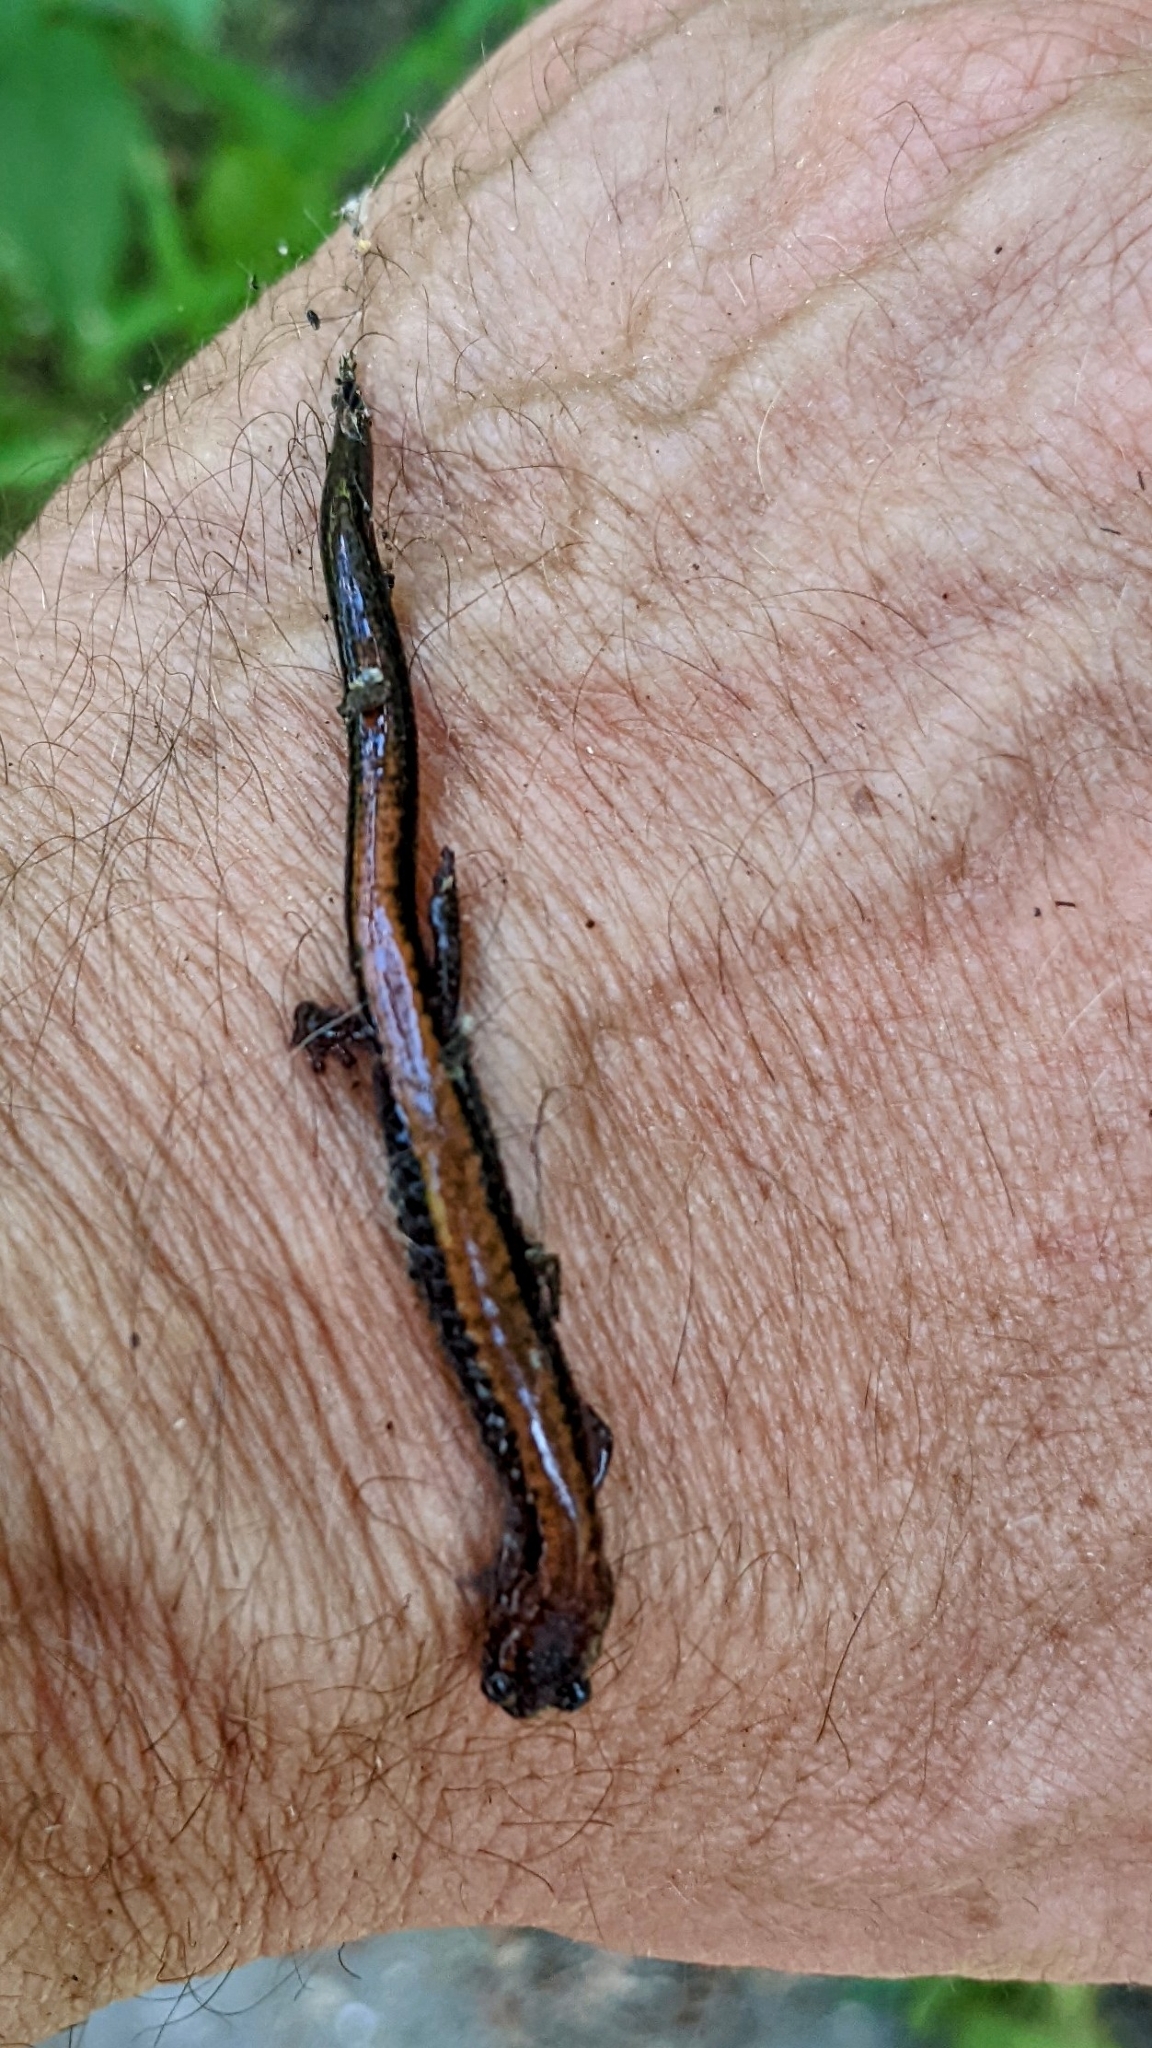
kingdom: Animalia
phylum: Chordata
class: Amphibia
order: Caudata
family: Plethodontidae
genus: Plethodon
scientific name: Plethodon cinereus
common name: Redback salamander
